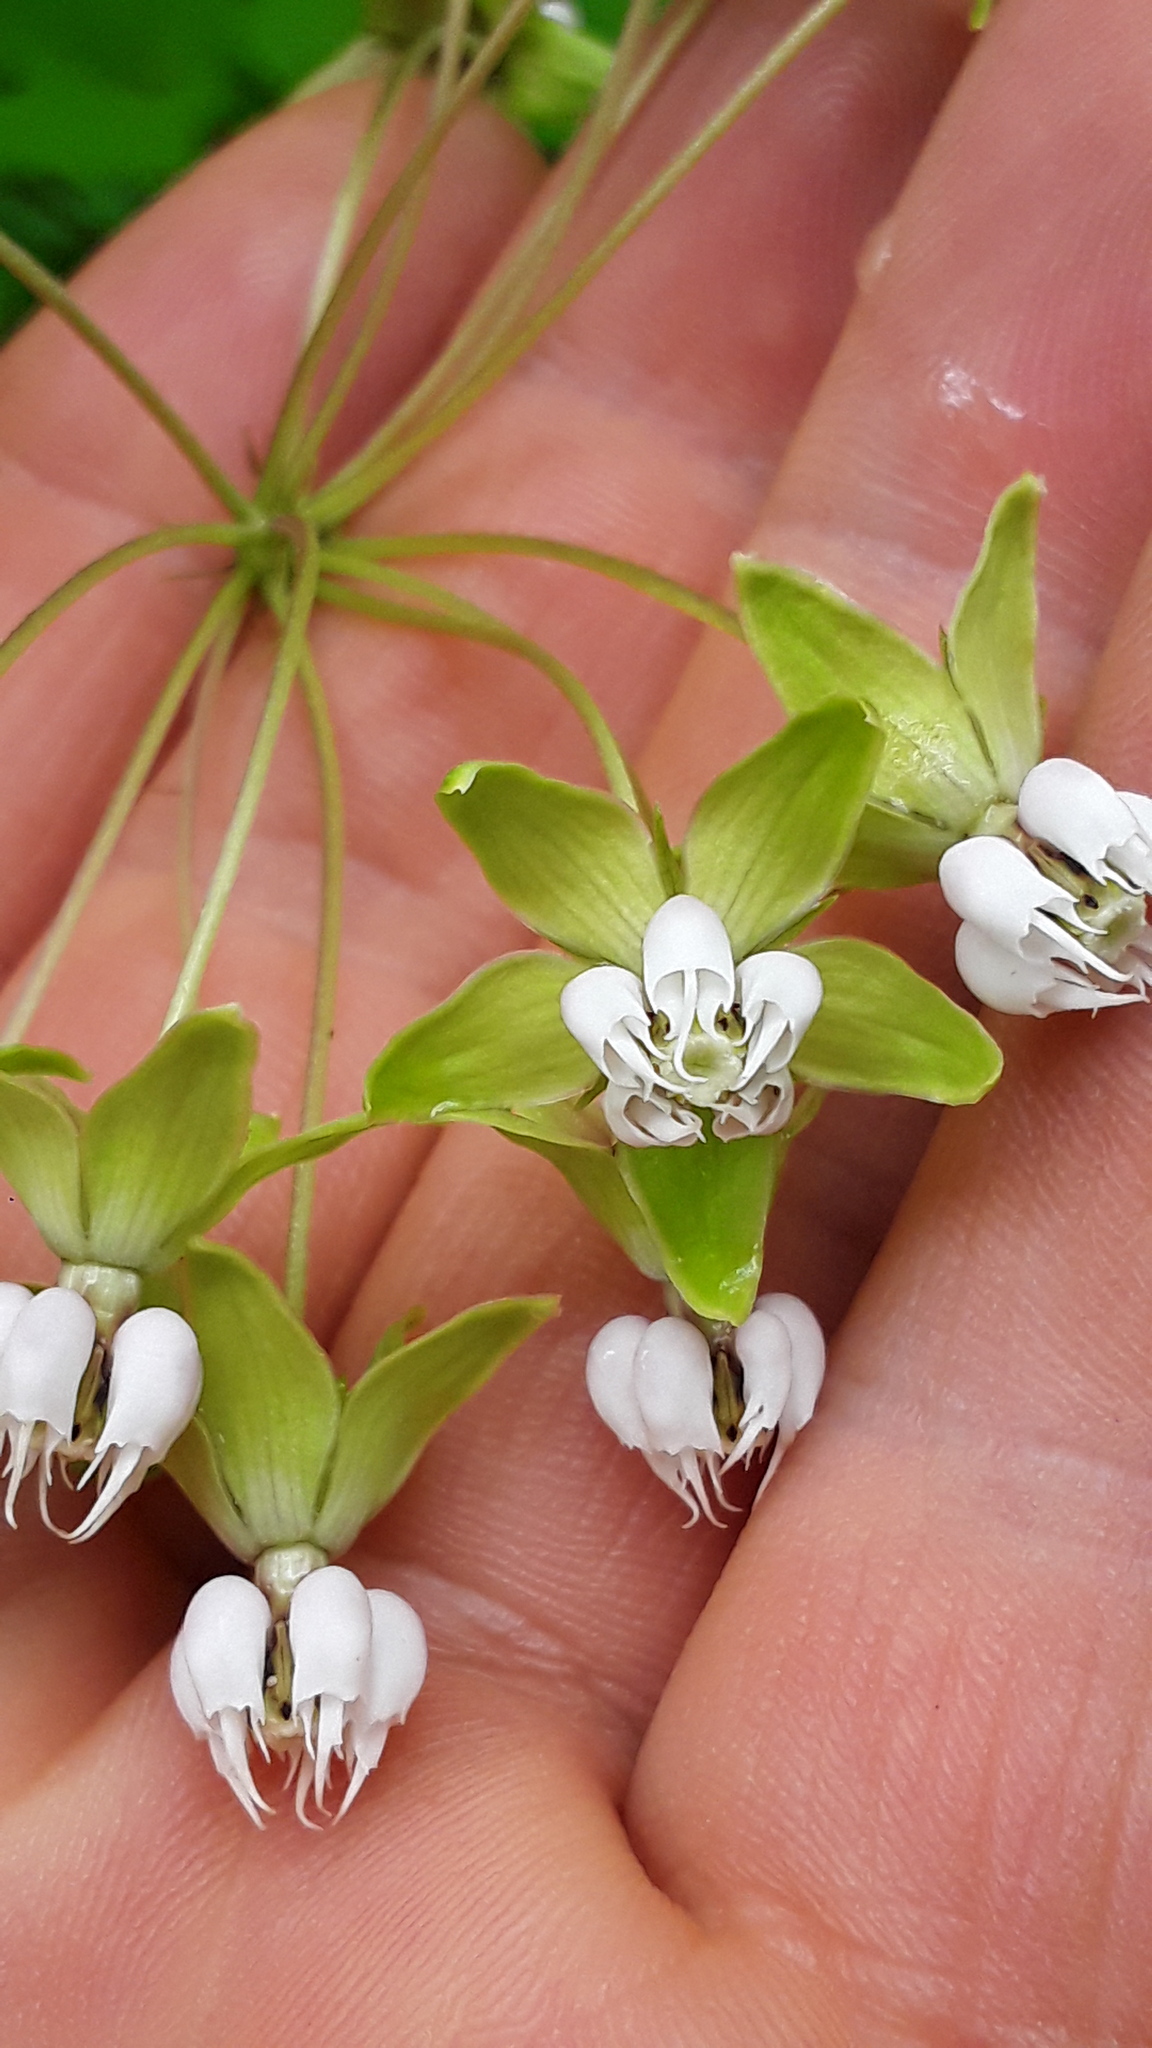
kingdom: Plantae
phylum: Tracheophyta
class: Magnoliopsida
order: Gentianales
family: Apocynaceae
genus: Asclepias
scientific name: Asclepias exaltata
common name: Poke milkweed
